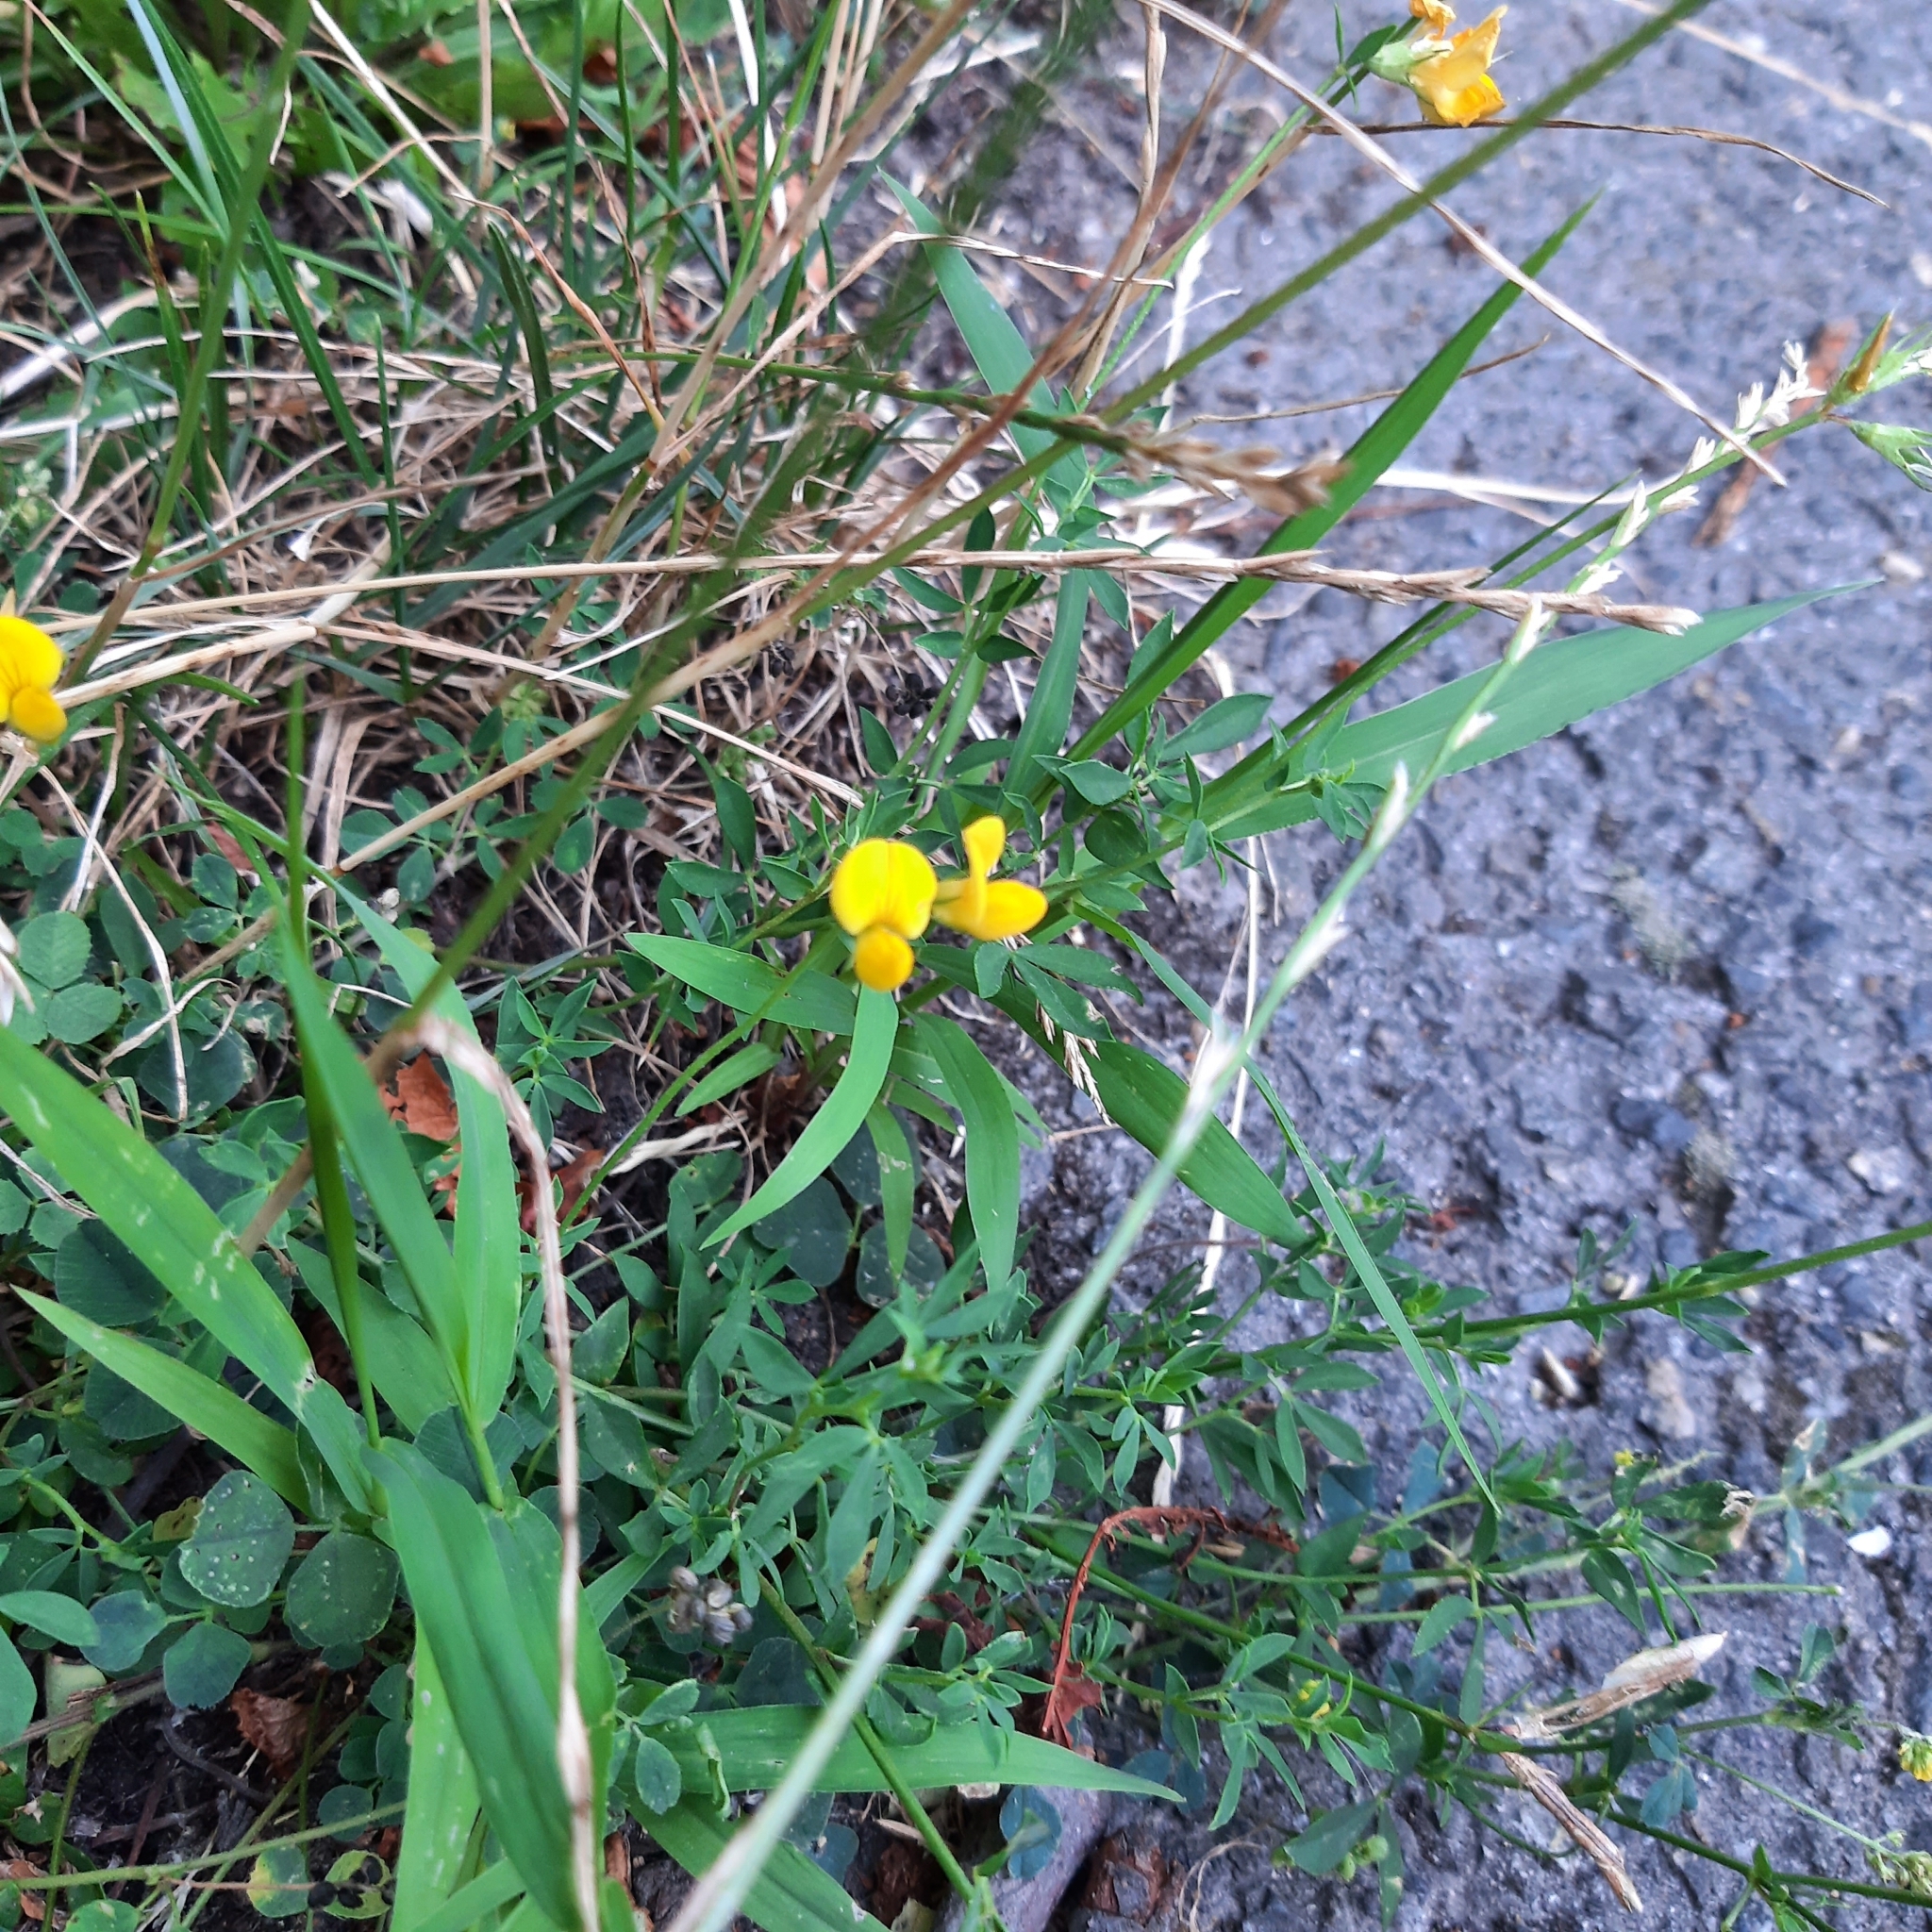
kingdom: Plantae
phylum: Tracheophyta
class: Magnoliopsida
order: Fabales
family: Fabaceae
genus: Lotus
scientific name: Lotus corniculatus
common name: Common bird's-foot-trefoil
